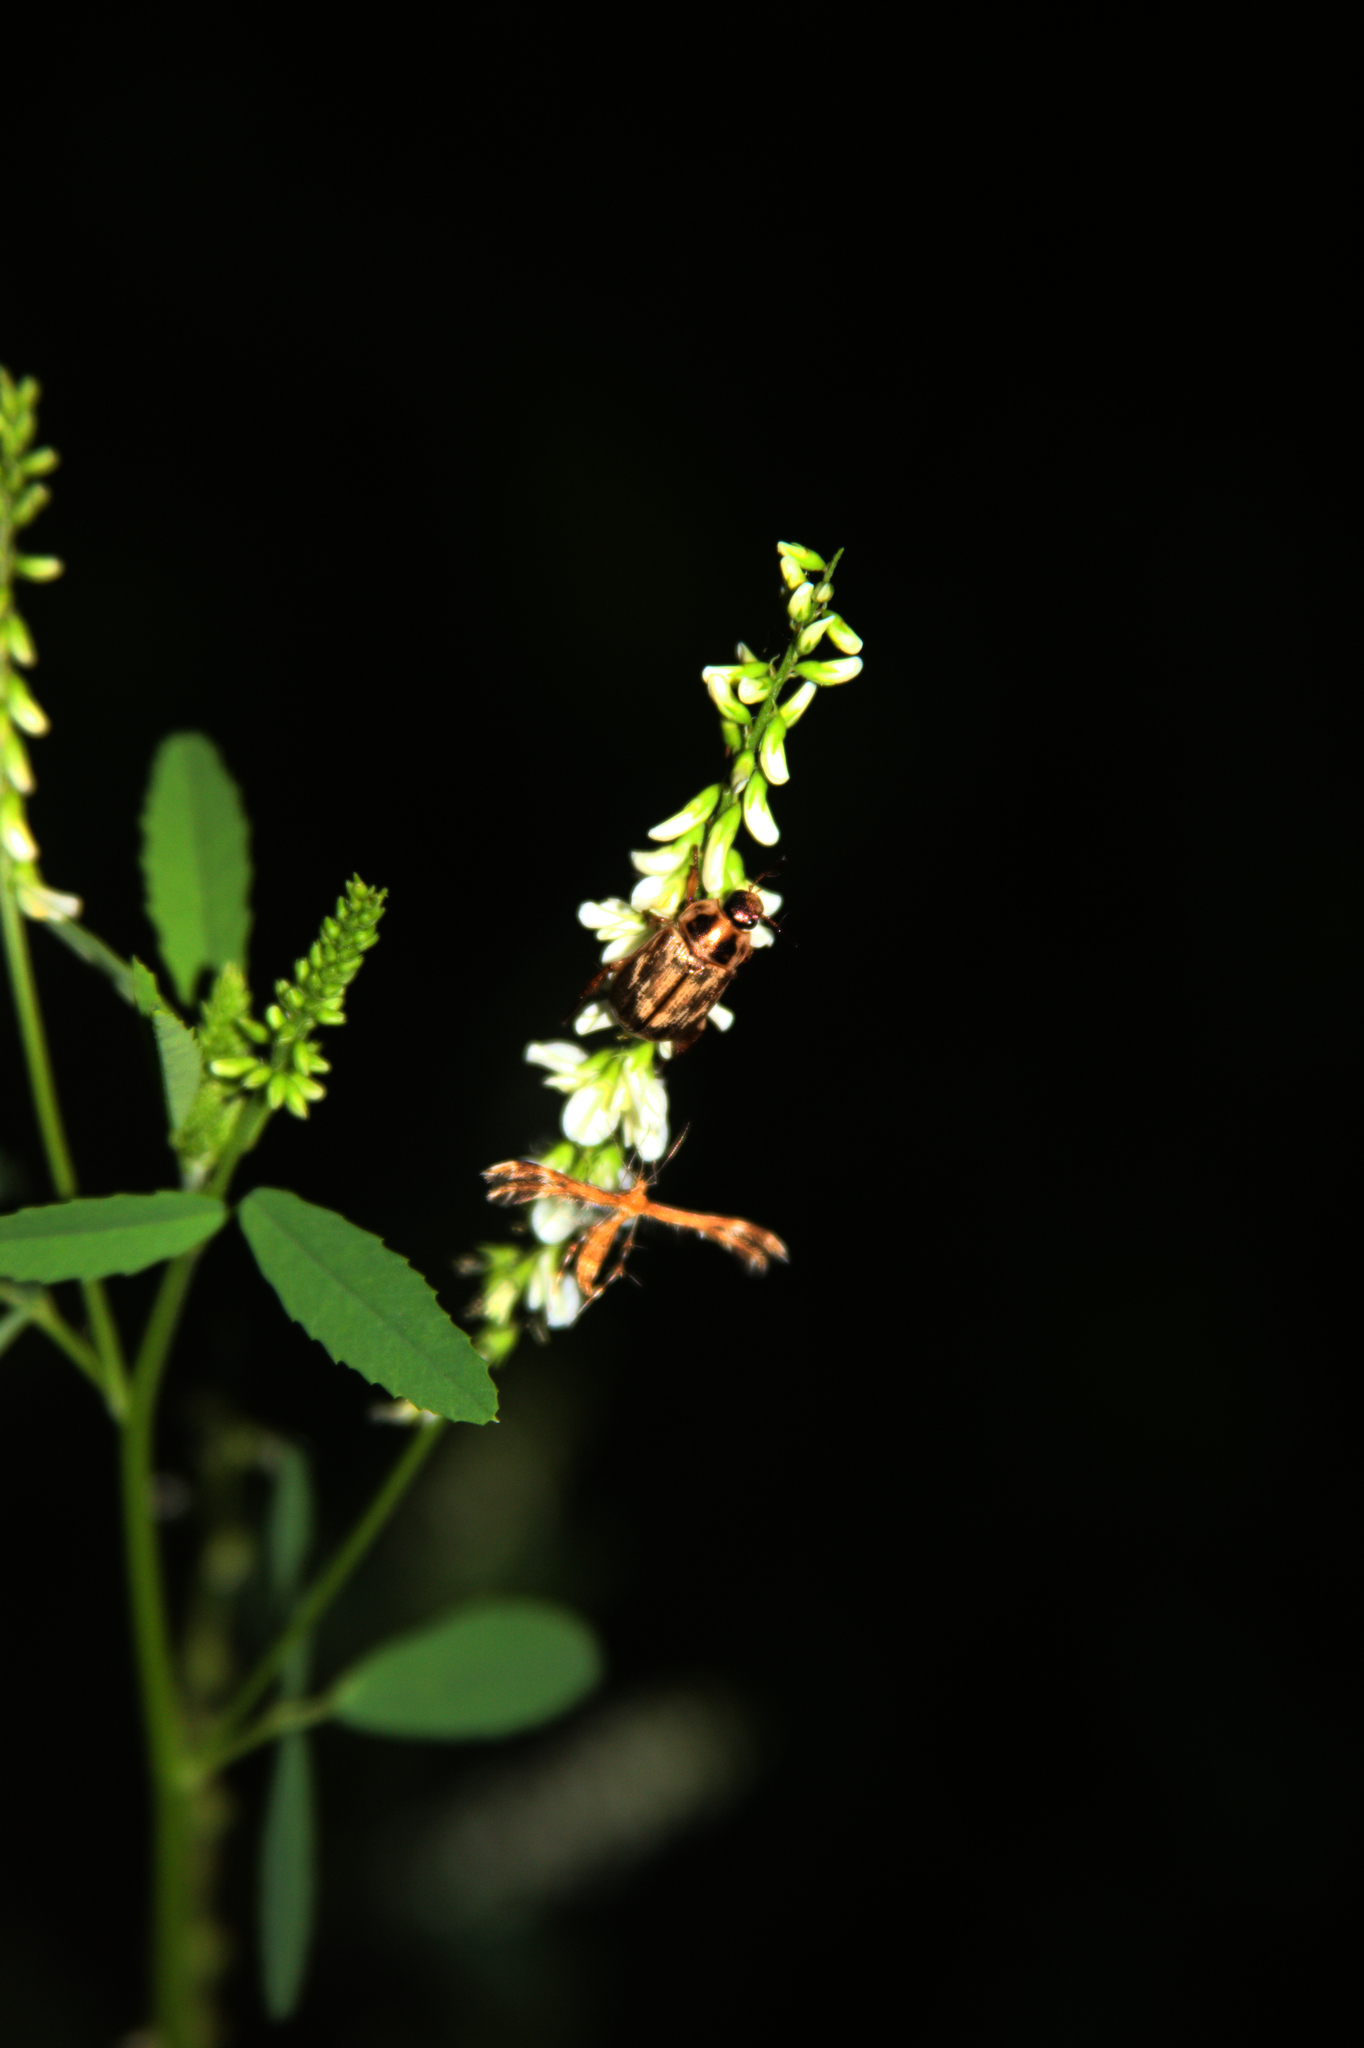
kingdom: Animalia
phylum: Arthropoda
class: Insecta
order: Coleoptera
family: Scarabaeidae
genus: Exomala
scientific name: Exomala orientalis
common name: Oriental beetle
